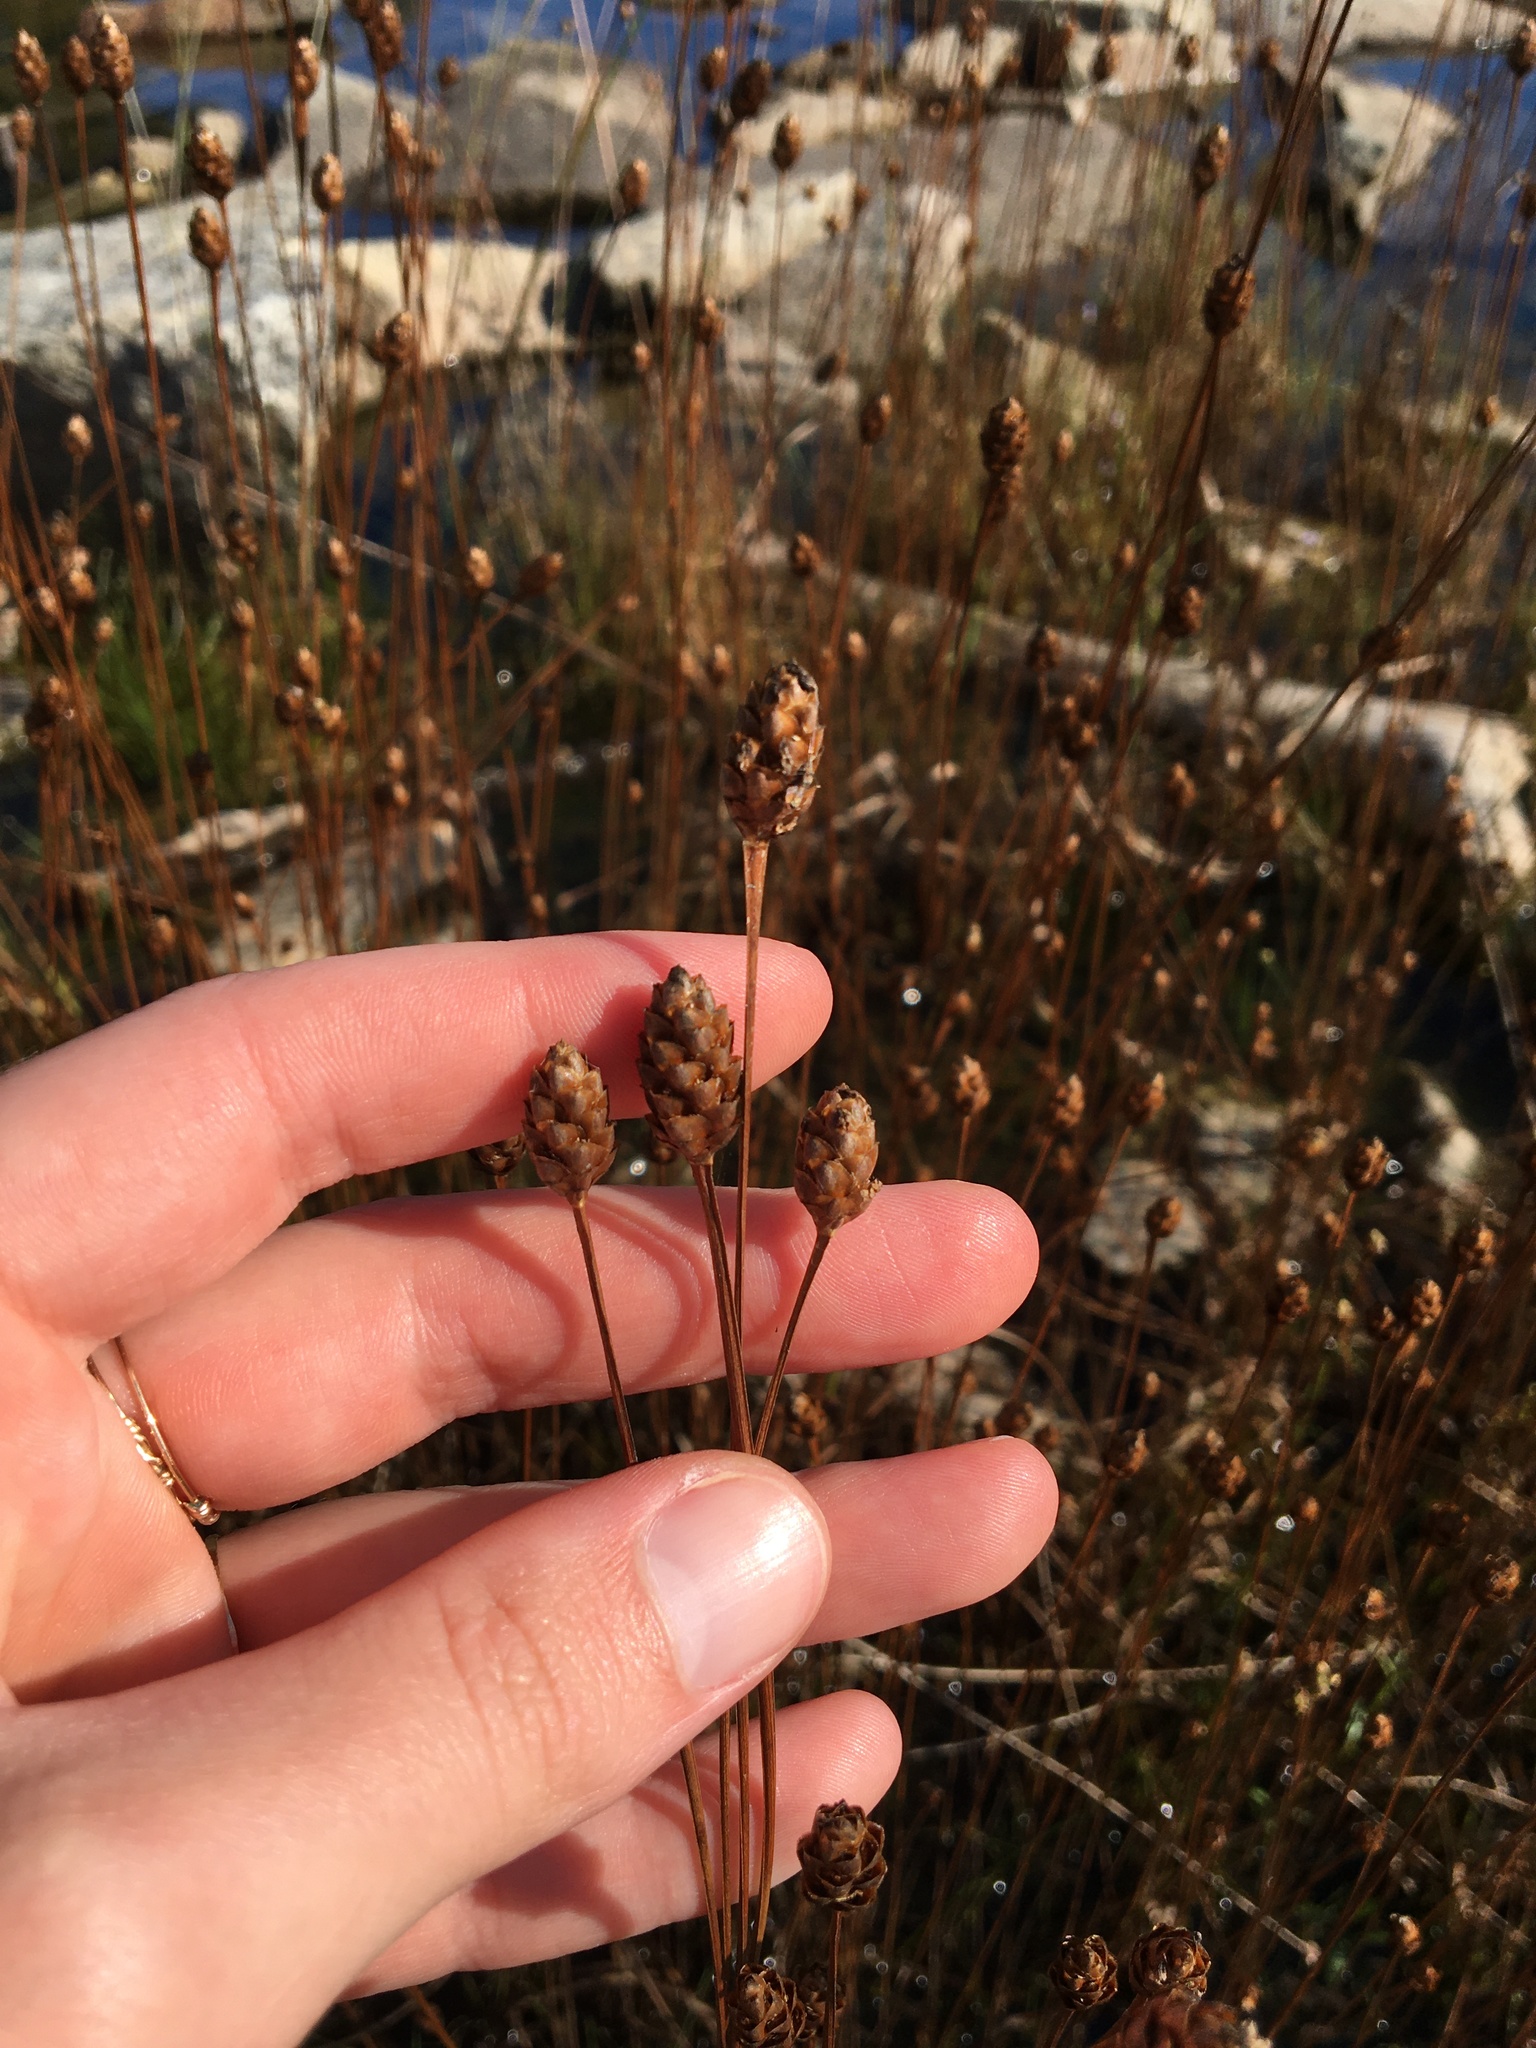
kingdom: Plantae
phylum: Tracheophyta
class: Liliopsida
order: Poales
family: Xyridaceae
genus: Xyris
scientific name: Xyris jupicai
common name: Richard's yelloweyed grass
